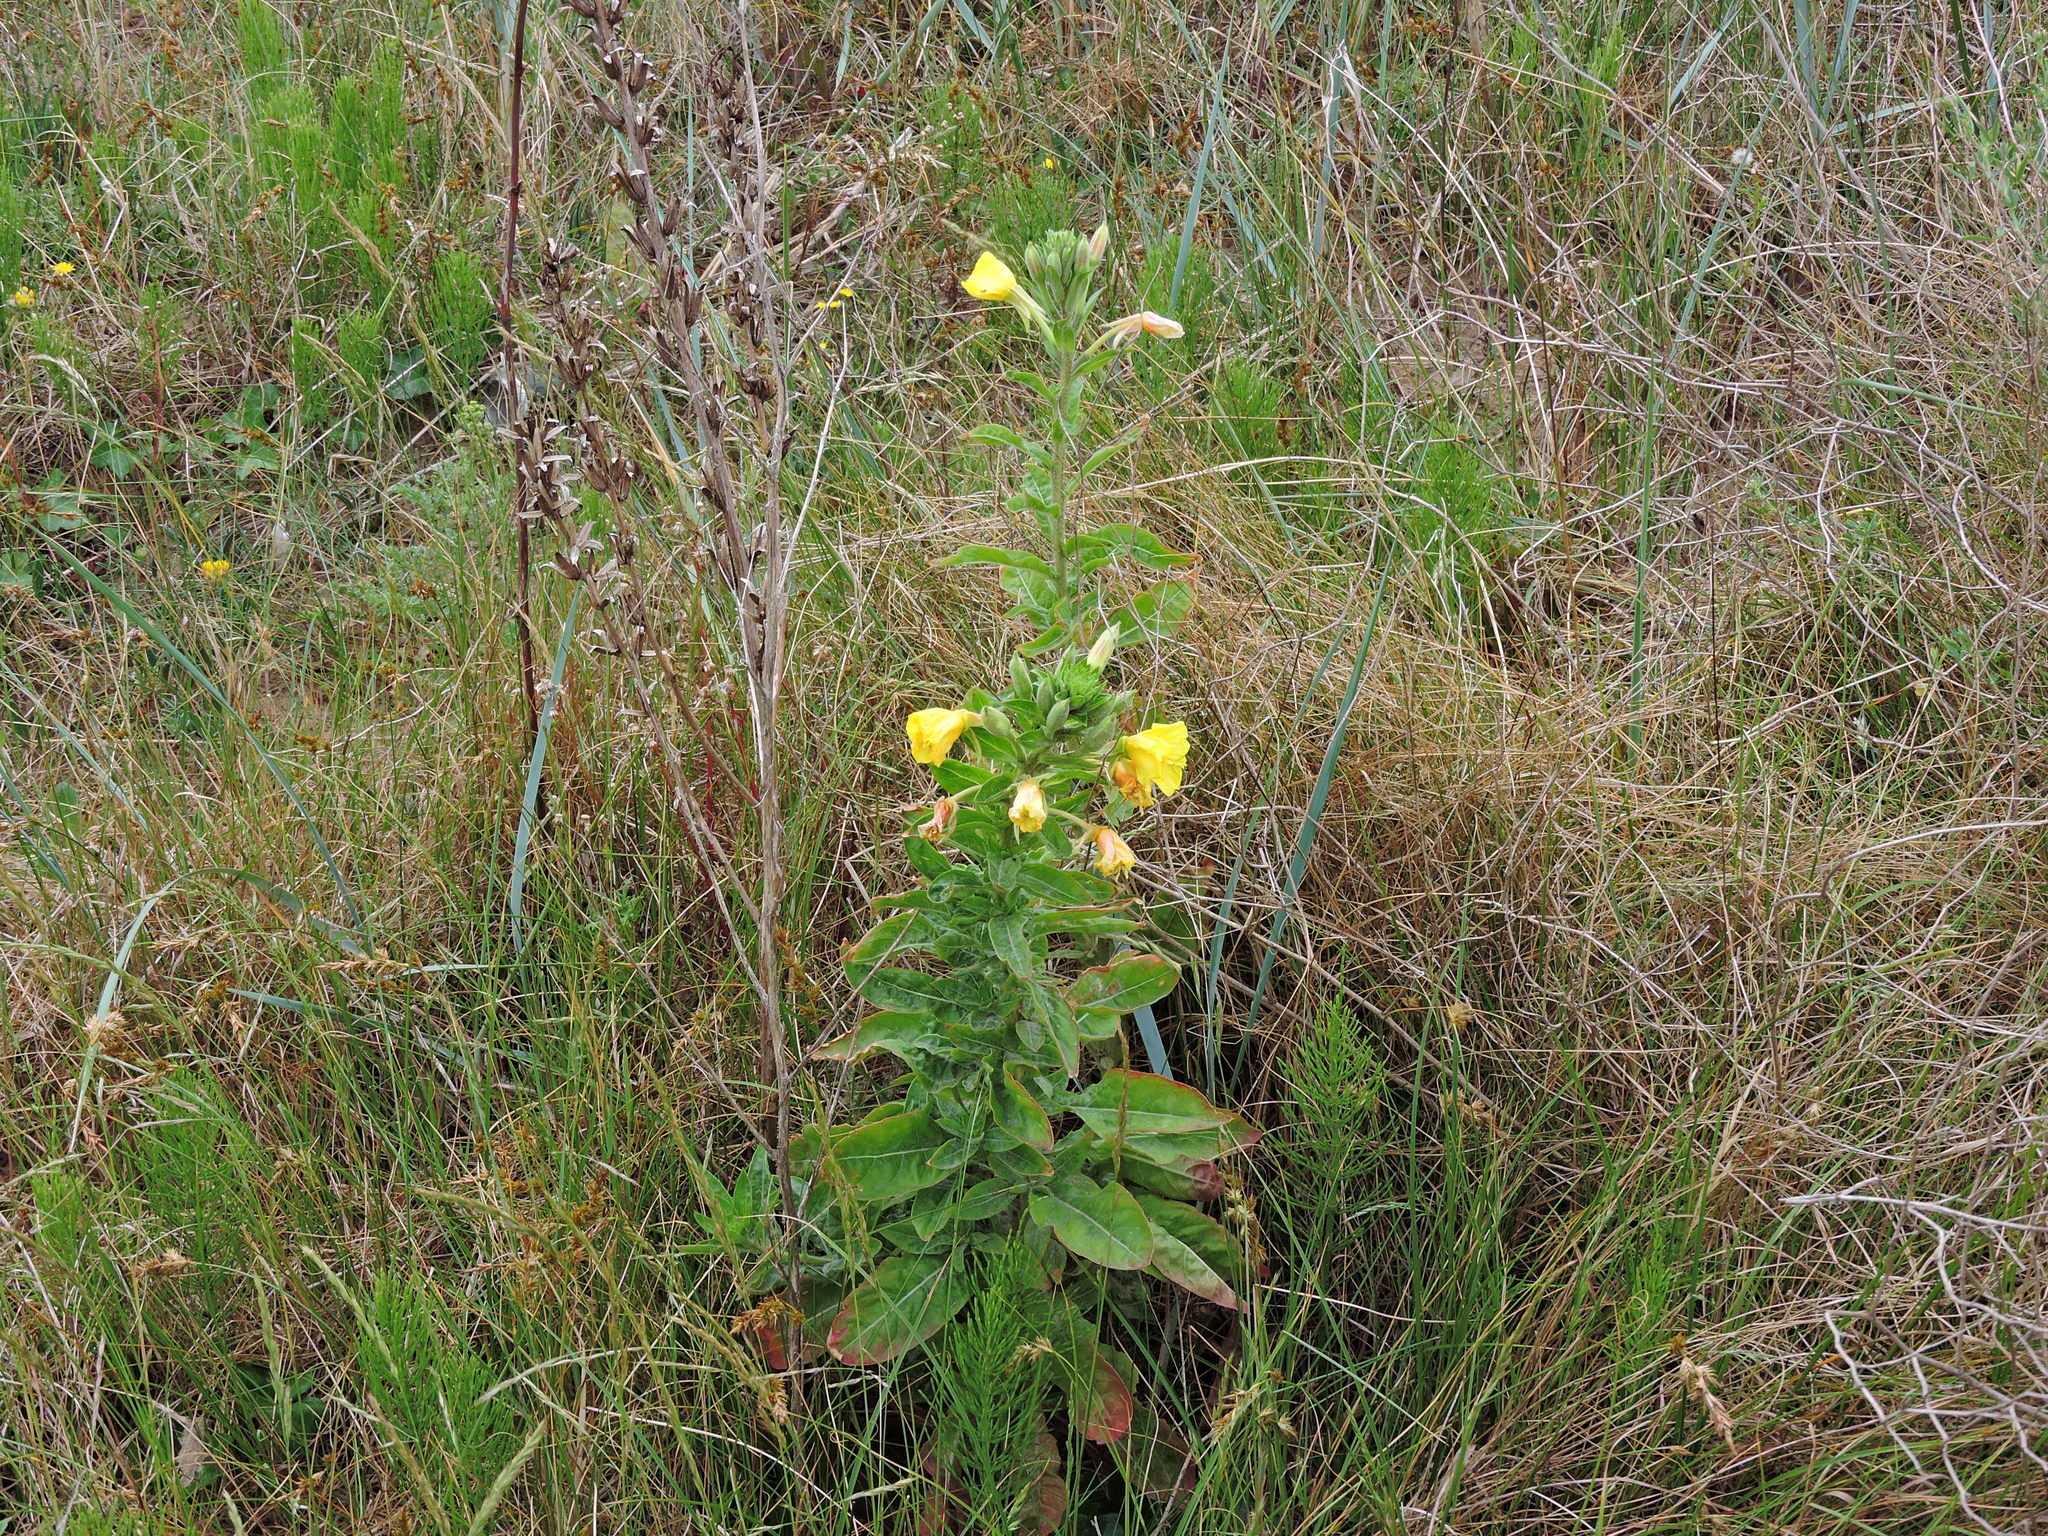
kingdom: Plantae
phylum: Tracheophyta
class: Magnoliopsida
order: Myrtales
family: Onagraceae
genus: Oenothera
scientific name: Oenothera glazioviana
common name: Large-flowered evening-primrose
